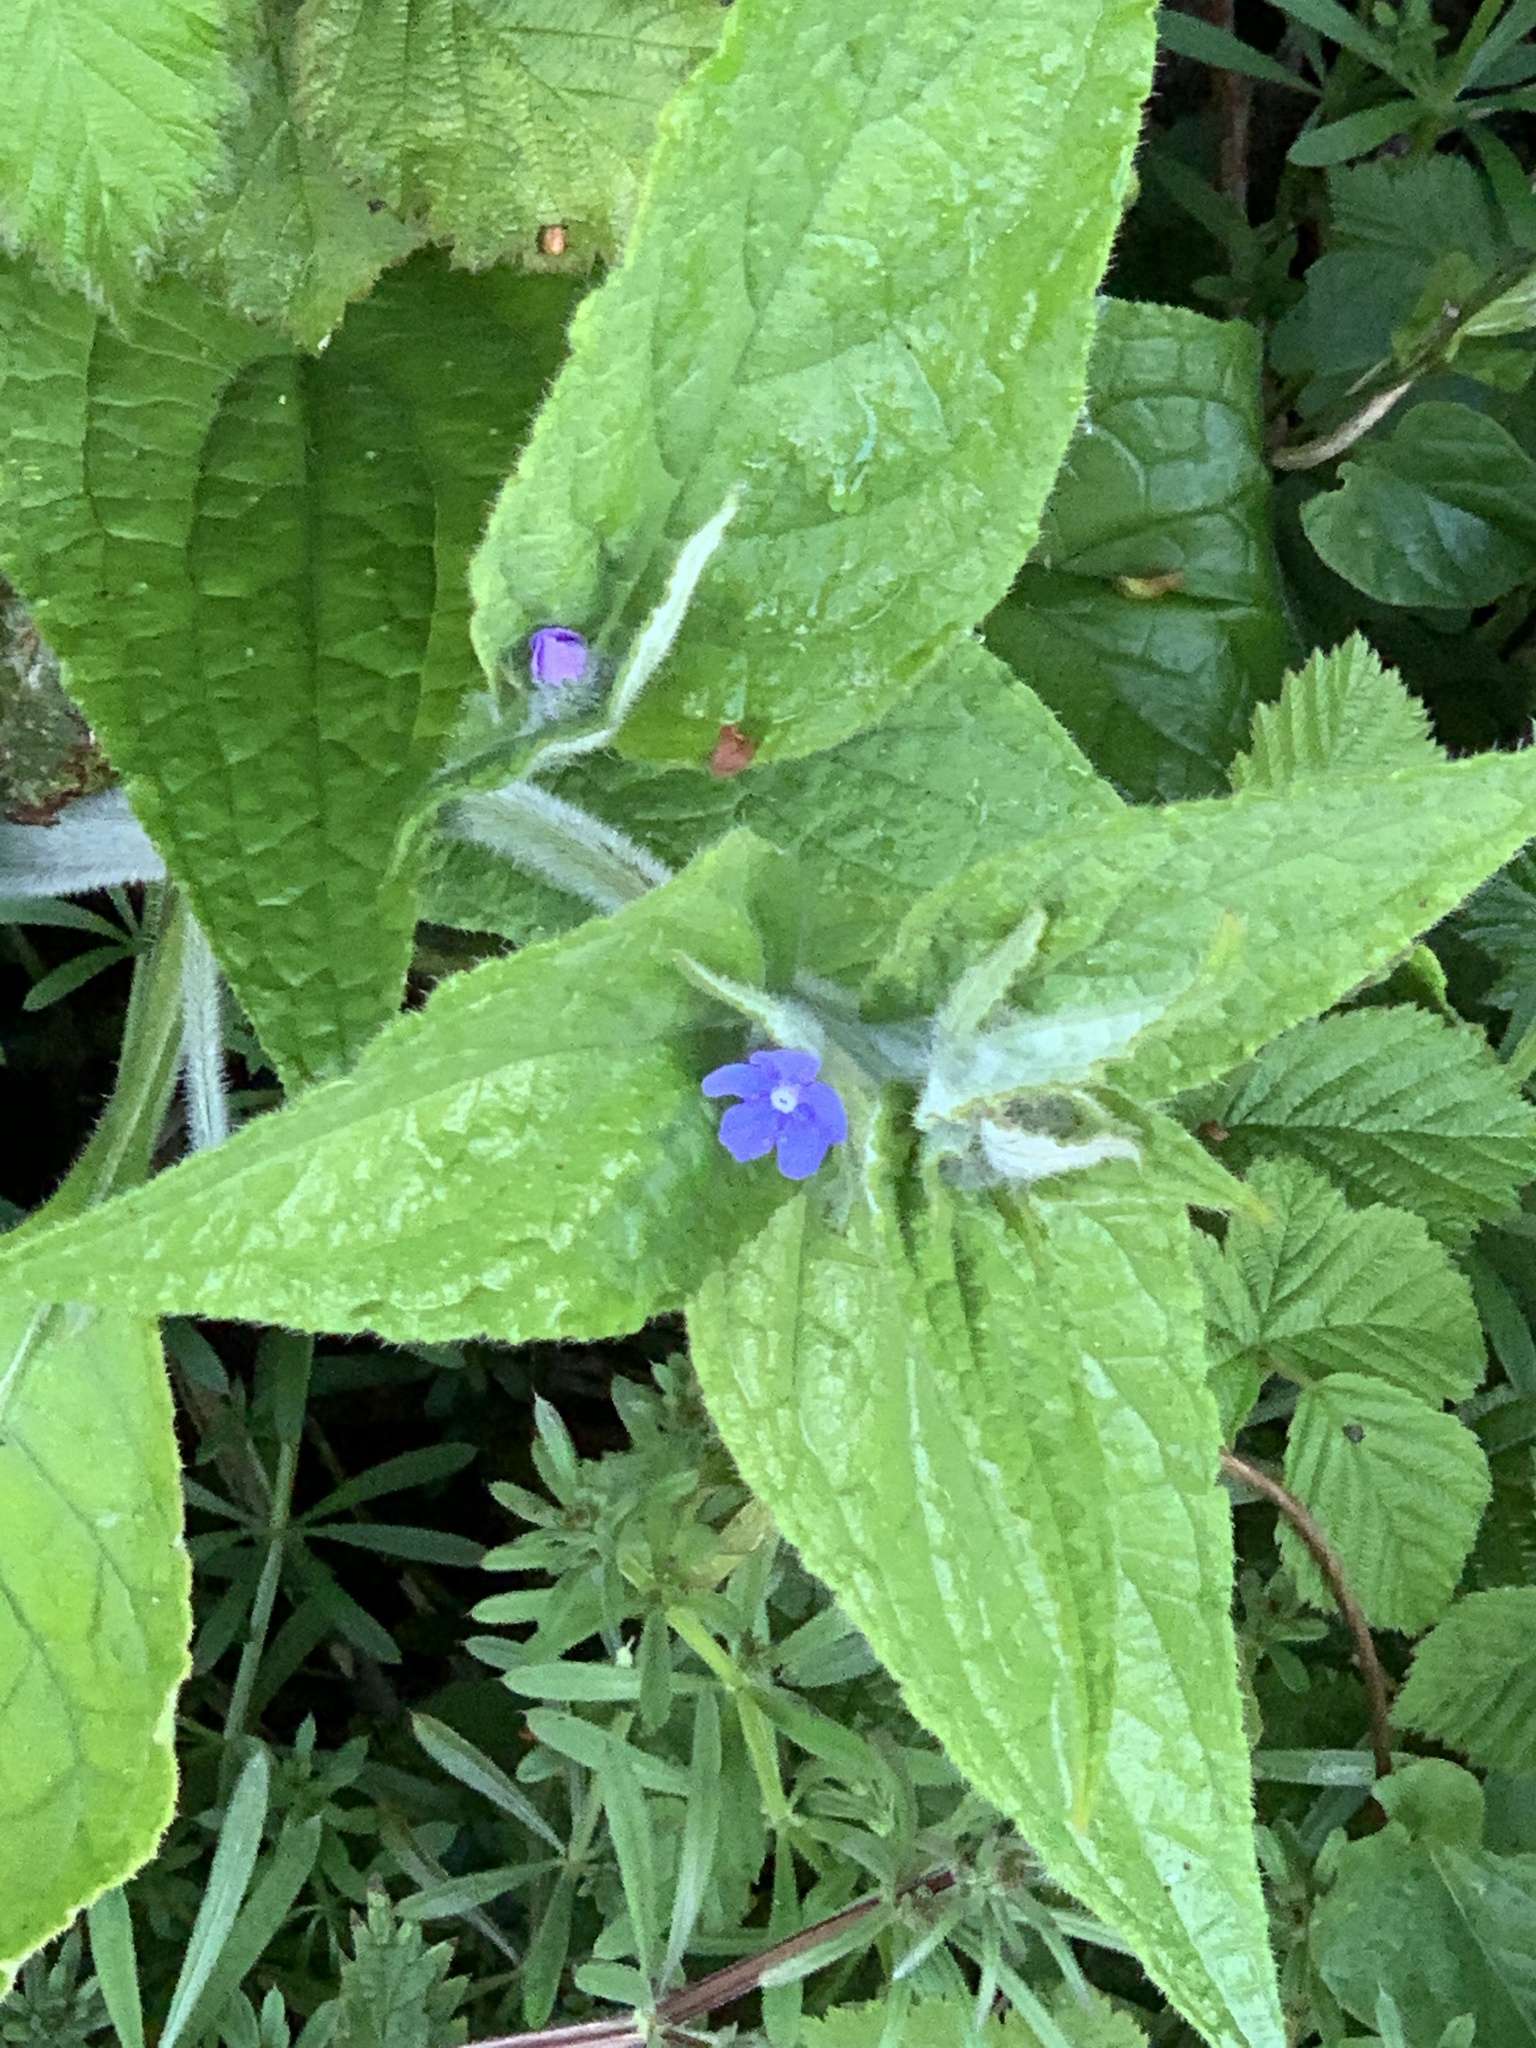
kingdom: Plantae
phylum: Tracheophyta
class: Magnoliopsida
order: Boraginales
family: Boraginaceae
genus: Pentaglottis
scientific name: Pentaglottis sempervirens
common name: Green alkanet
